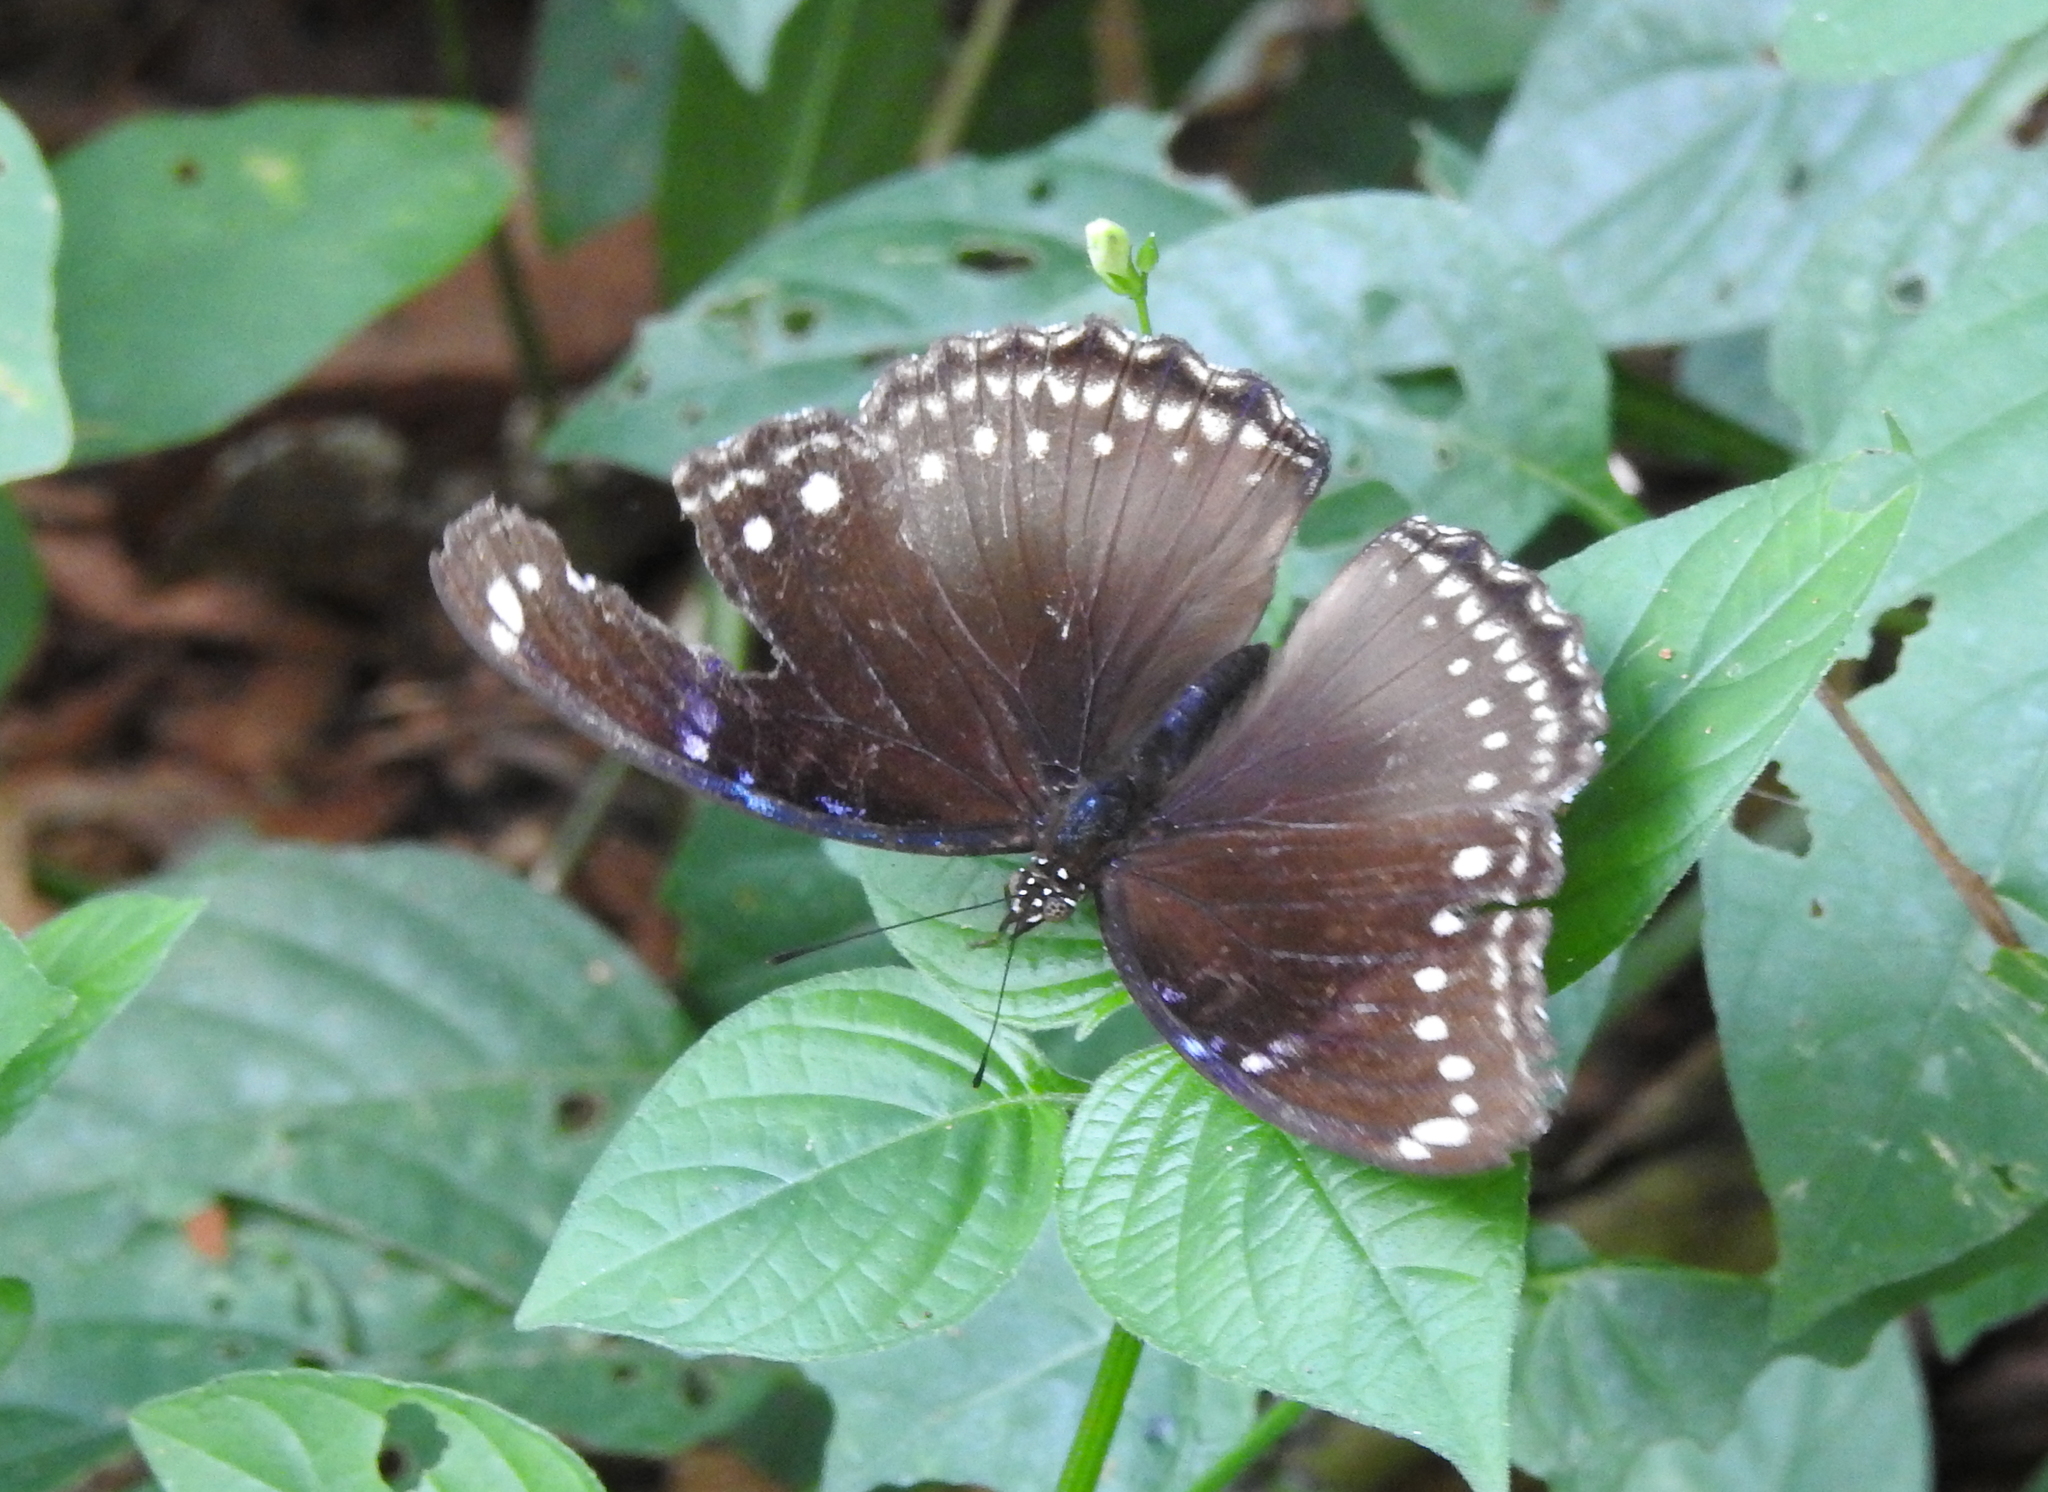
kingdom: Animalia
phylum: Arthropoda
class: Insecta
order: Lepidoptera
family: Nymphalidae
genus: Hypolimnas
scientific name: Hypolimnas bolina
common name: Great eggfly
